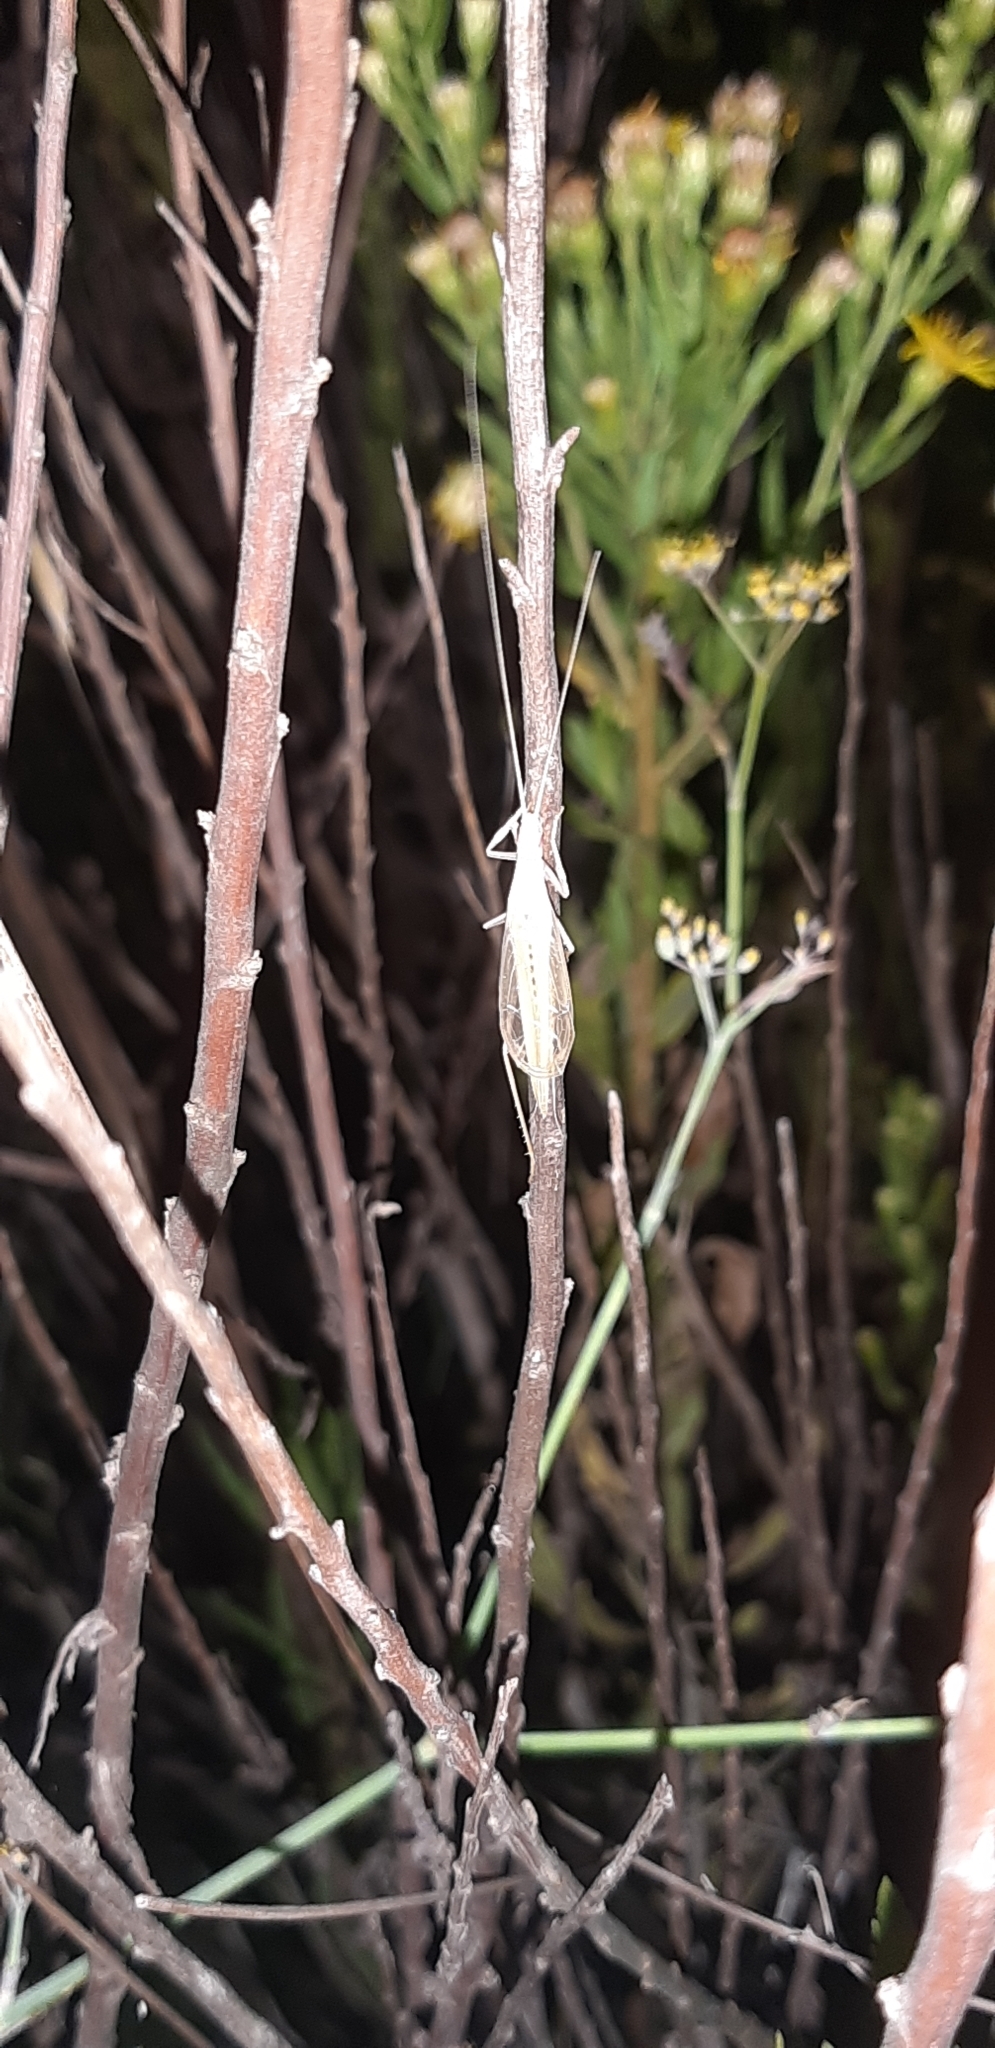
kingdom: Animalia
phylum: Arthropoda
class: Insecta
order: Orthoptera
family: Gryllidae
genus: Oecanthus
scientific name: Oecanthus dulcisonans
